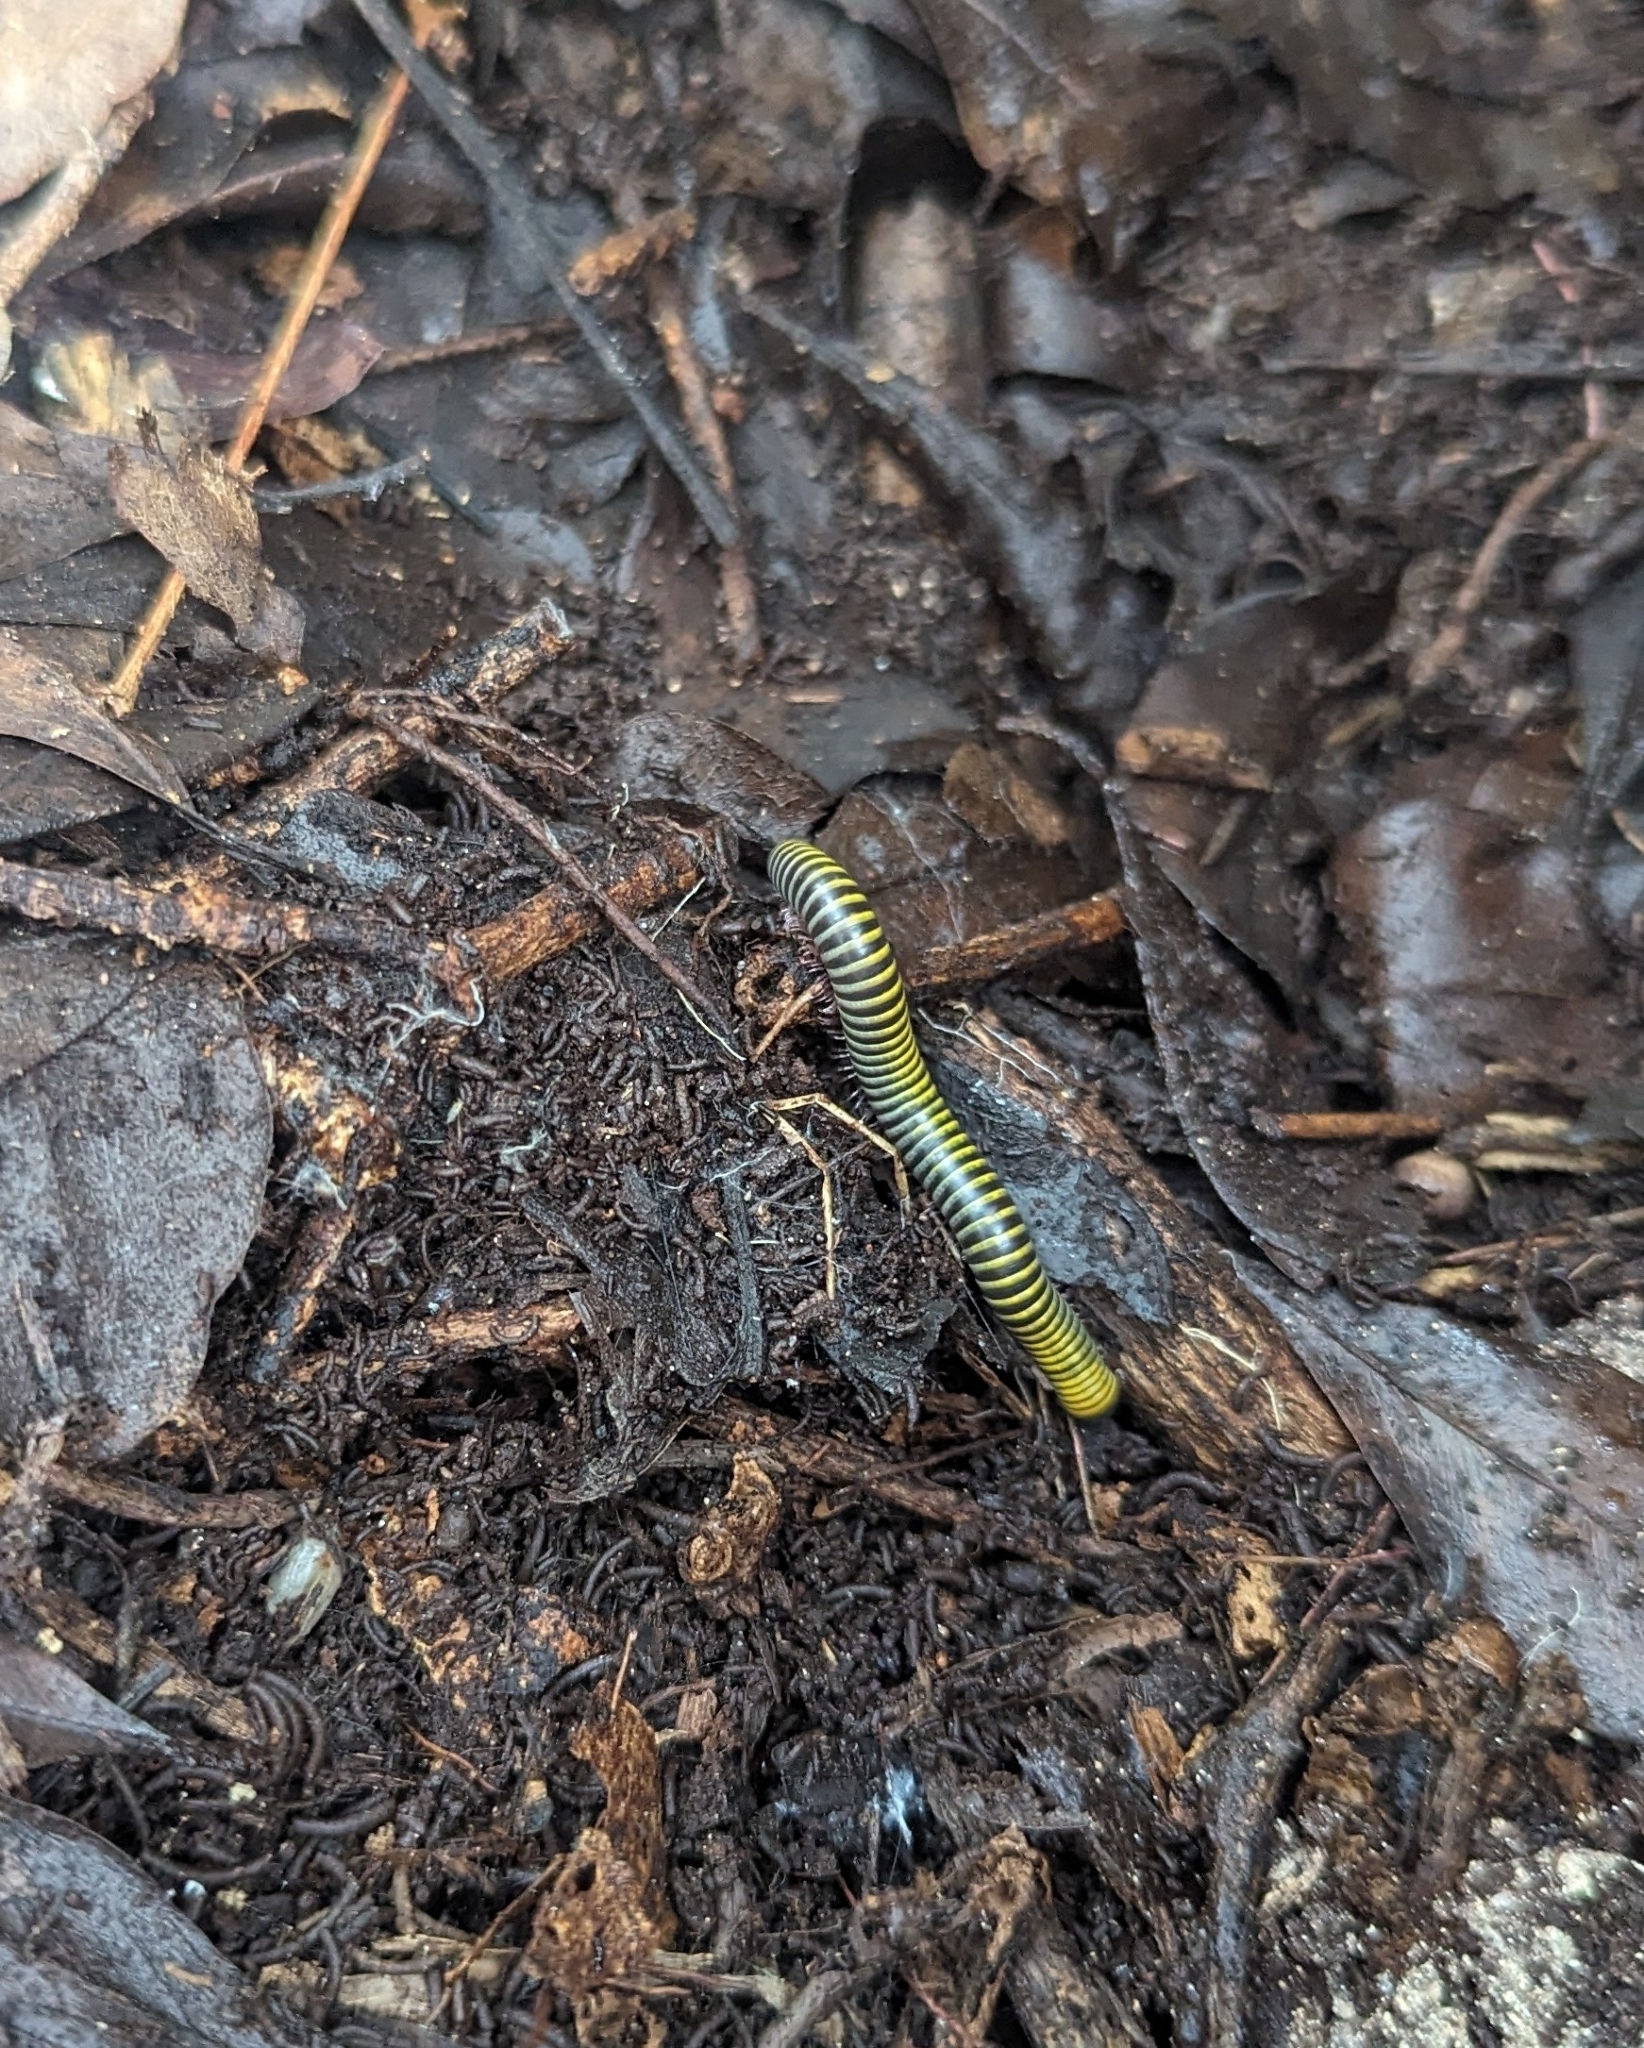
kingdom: Animalia
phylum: Arthropoda
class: Diplopoda
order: Spirobolida
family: Rhinocricidae
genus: Anadenobolus
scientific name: Anadenobolus monilicornis
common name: Caribbean millipede
